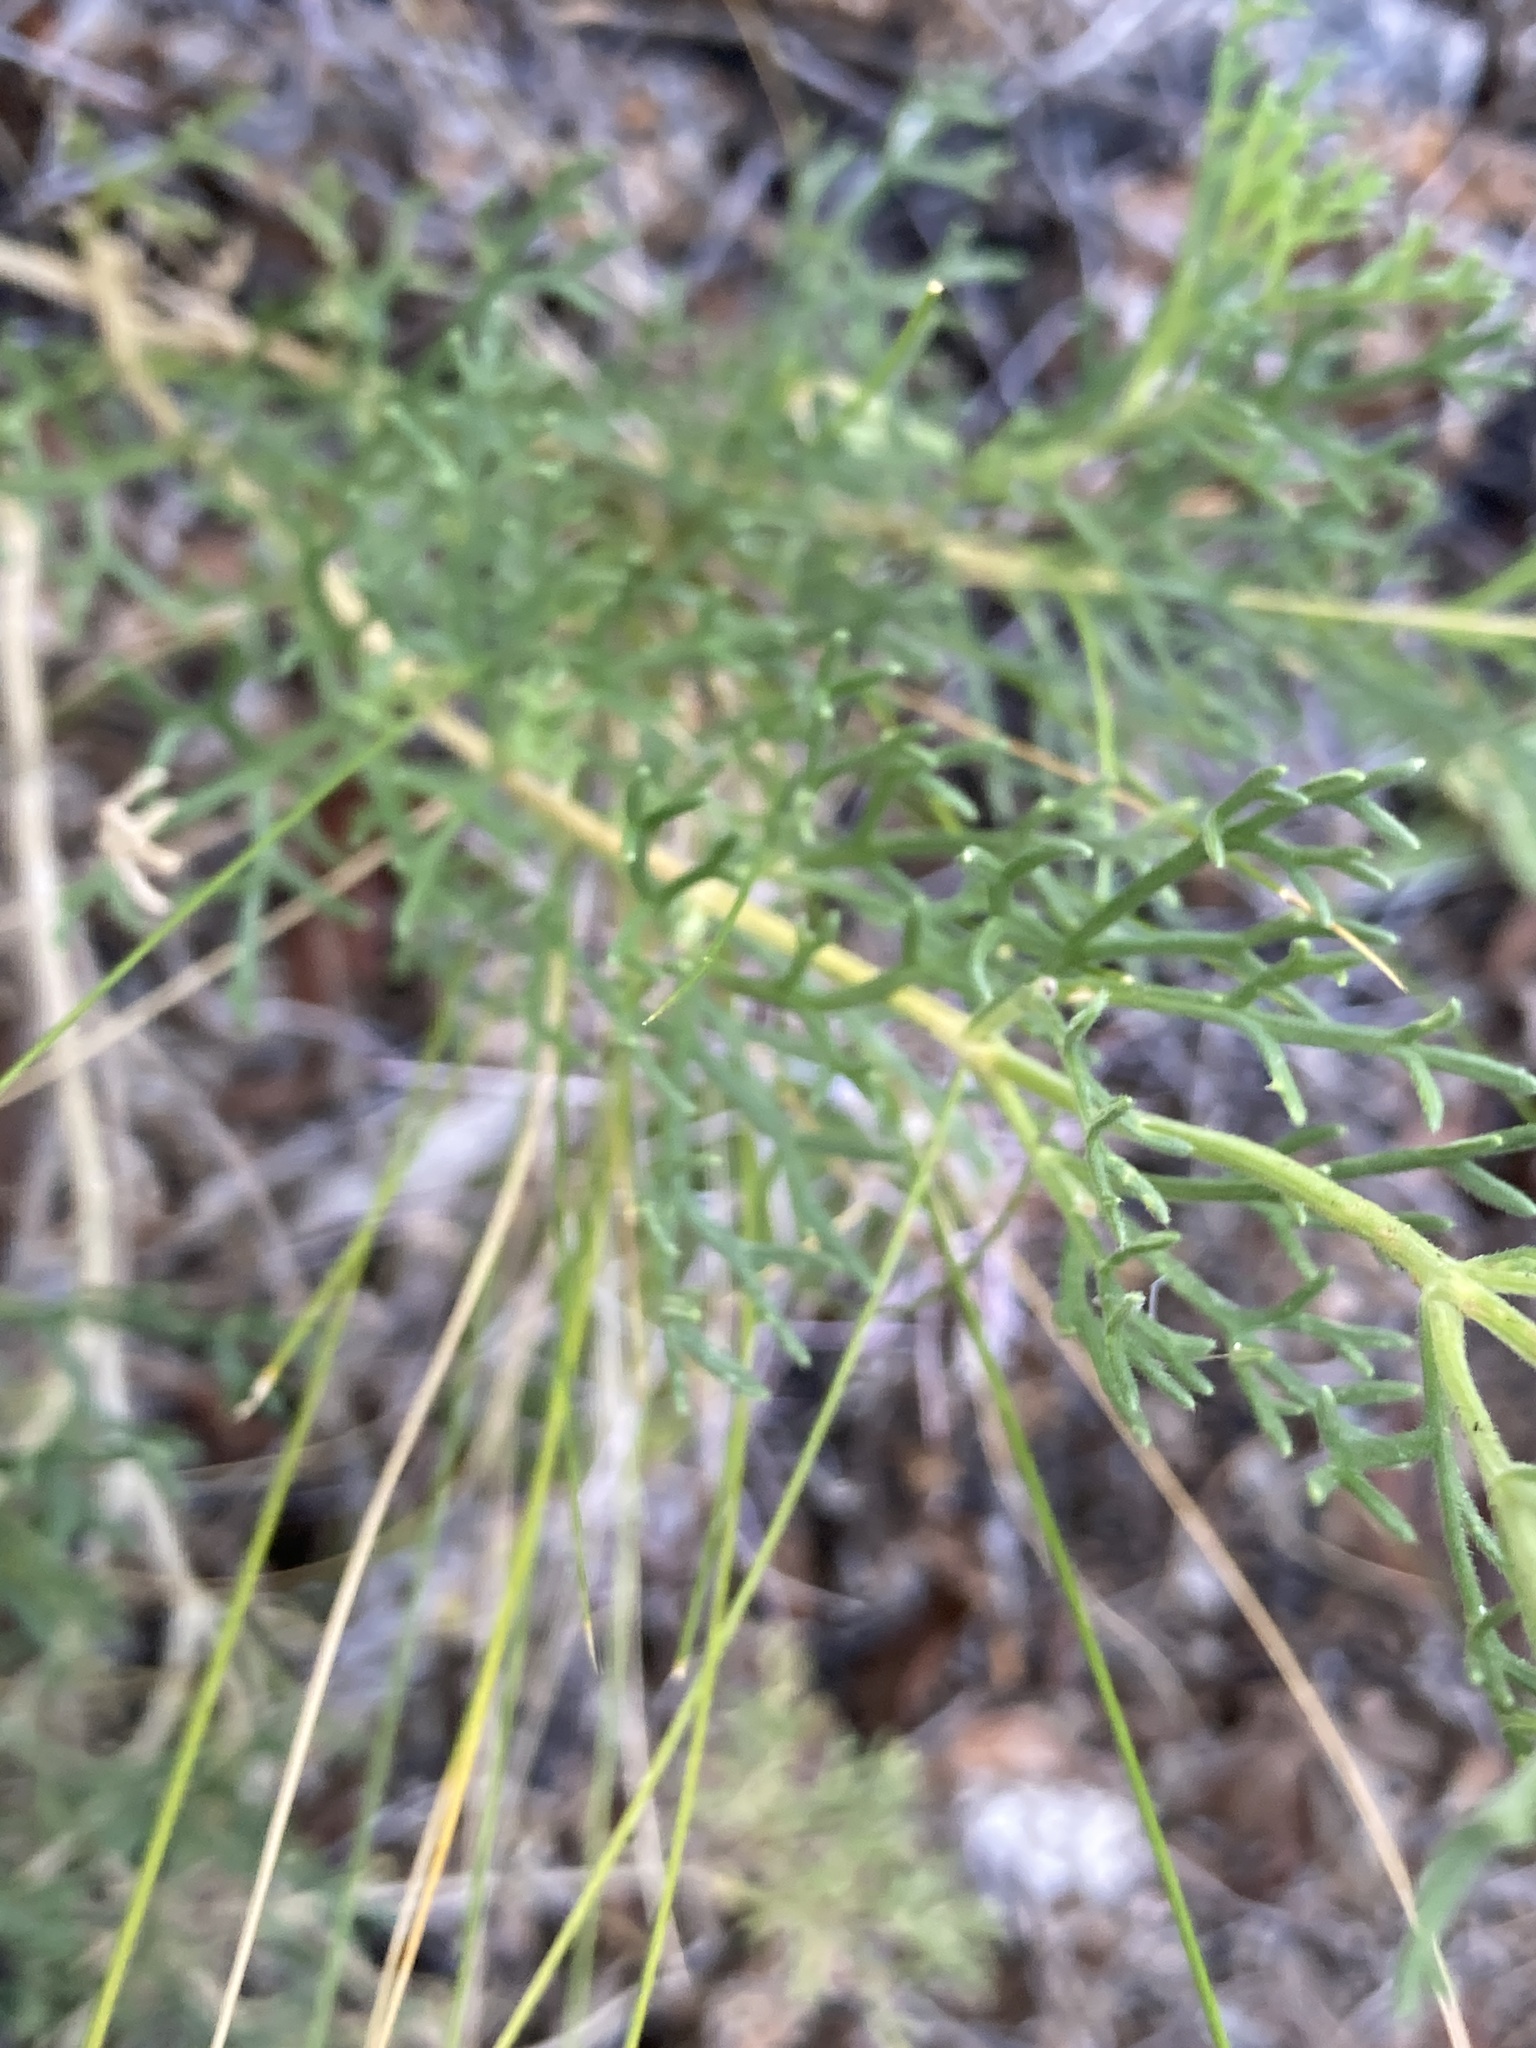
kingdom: Plantae
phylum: Tracheophyta
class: Magnoliopsida
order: Lamiales
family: Verbenaceae
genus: Junellia
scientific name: Junellia hookeriana
